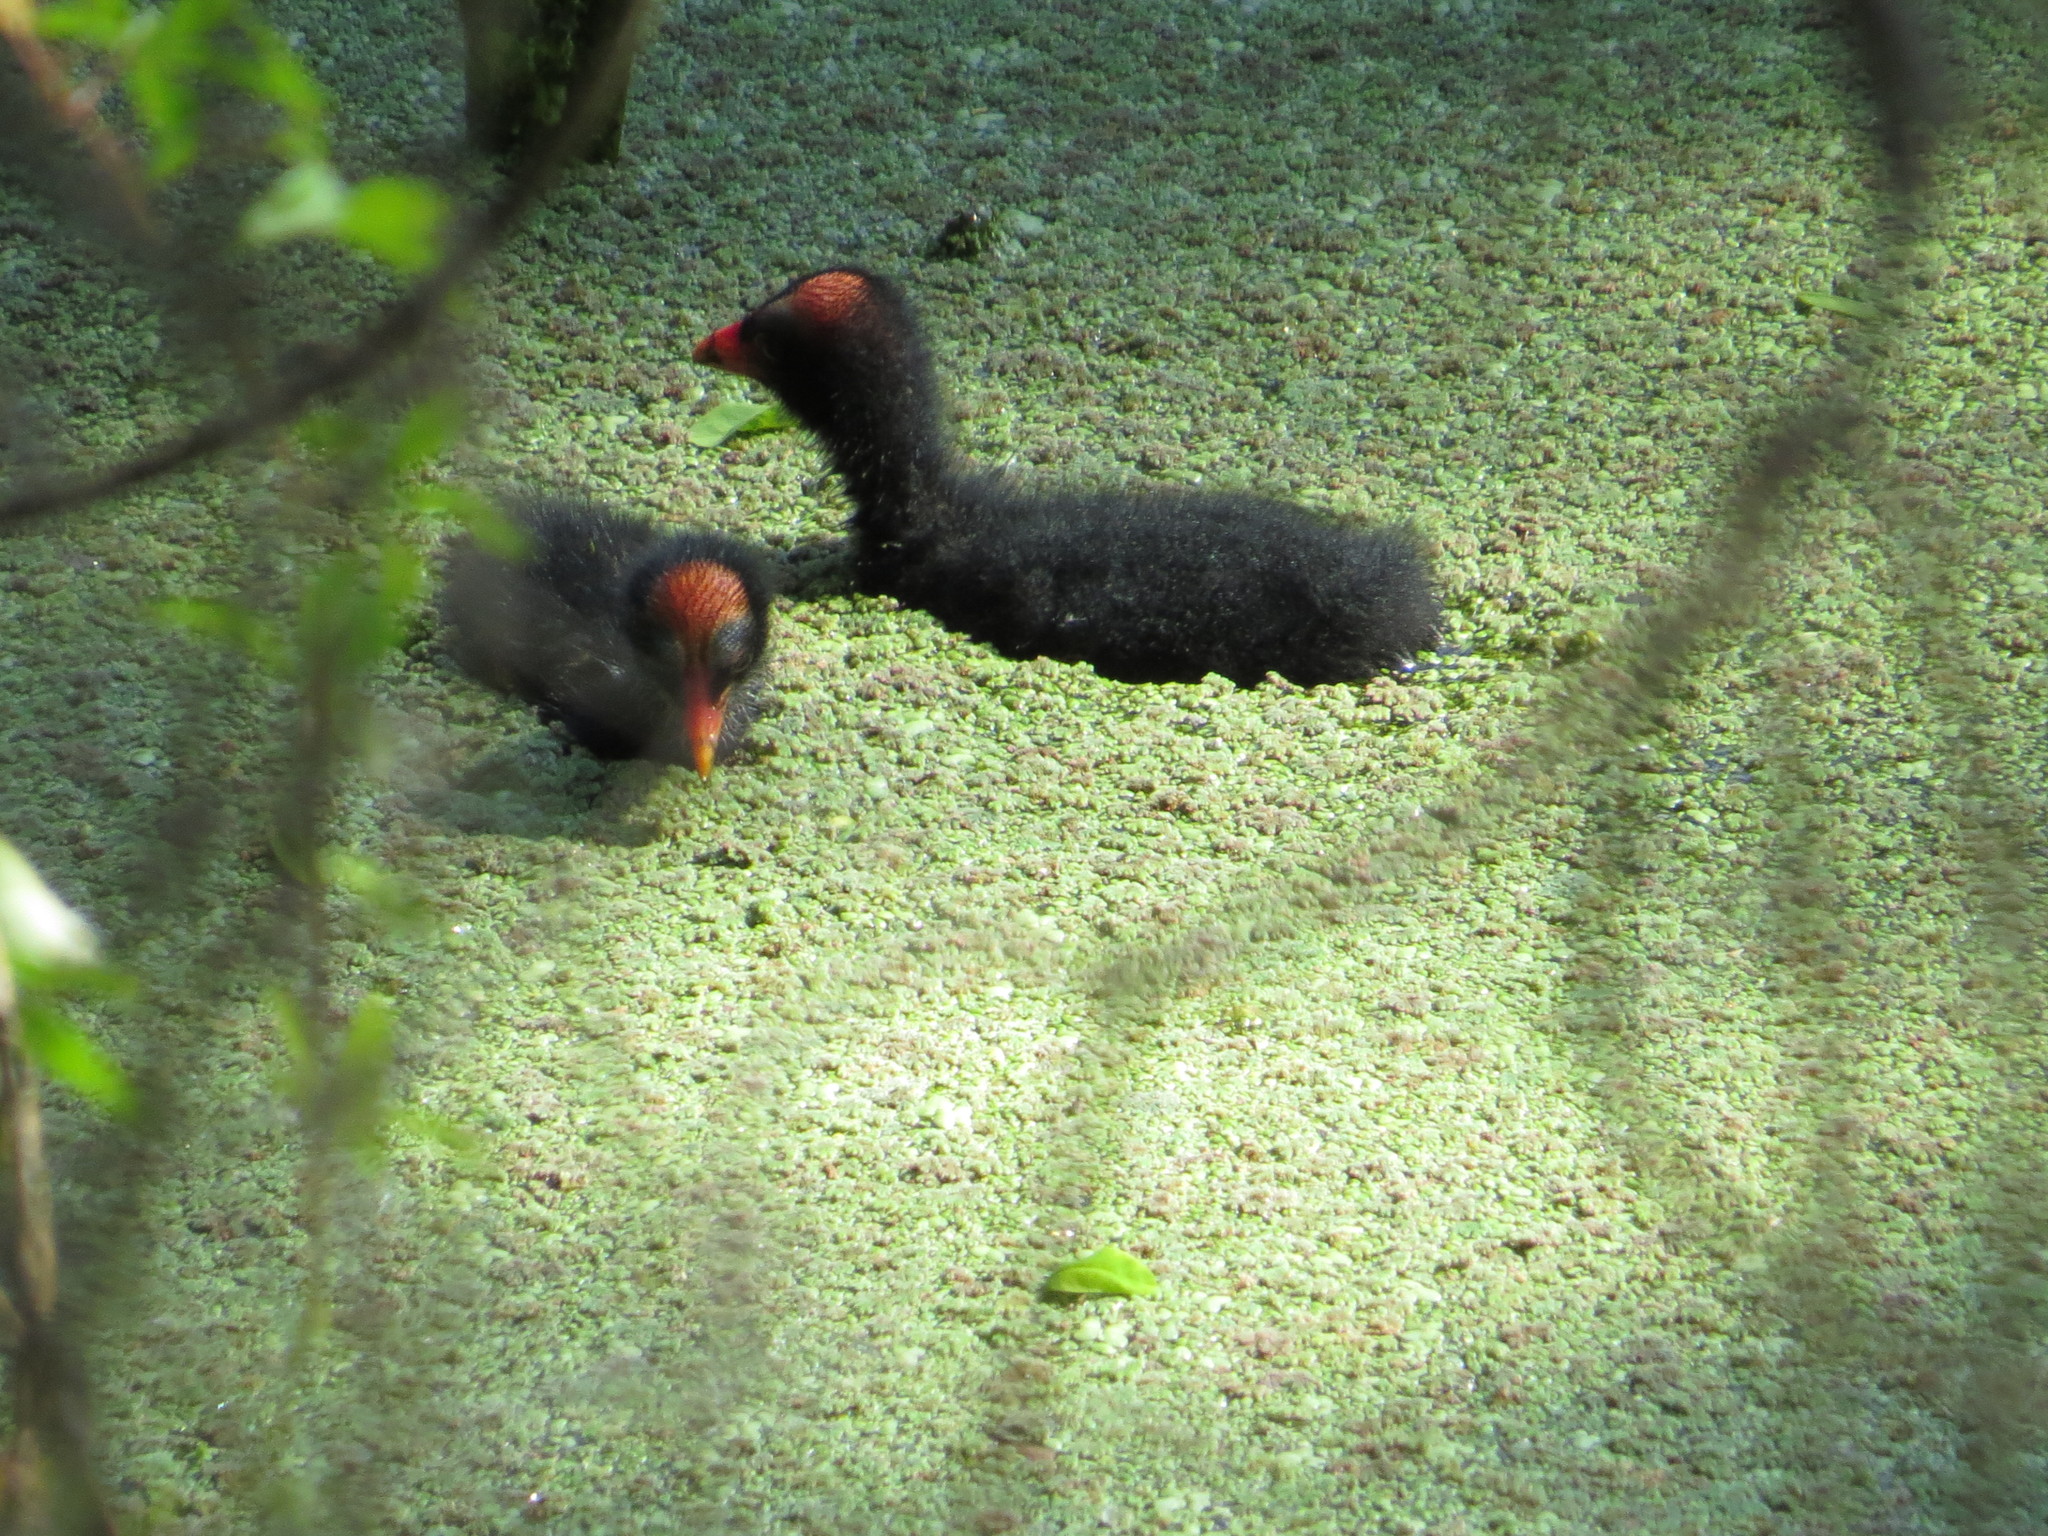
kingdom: Animalia
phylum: Chordata
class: Aves
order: Gruiformes
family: Rallidae
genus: Gallinula
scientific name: Gallinula chloropus
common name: Common moorhen
